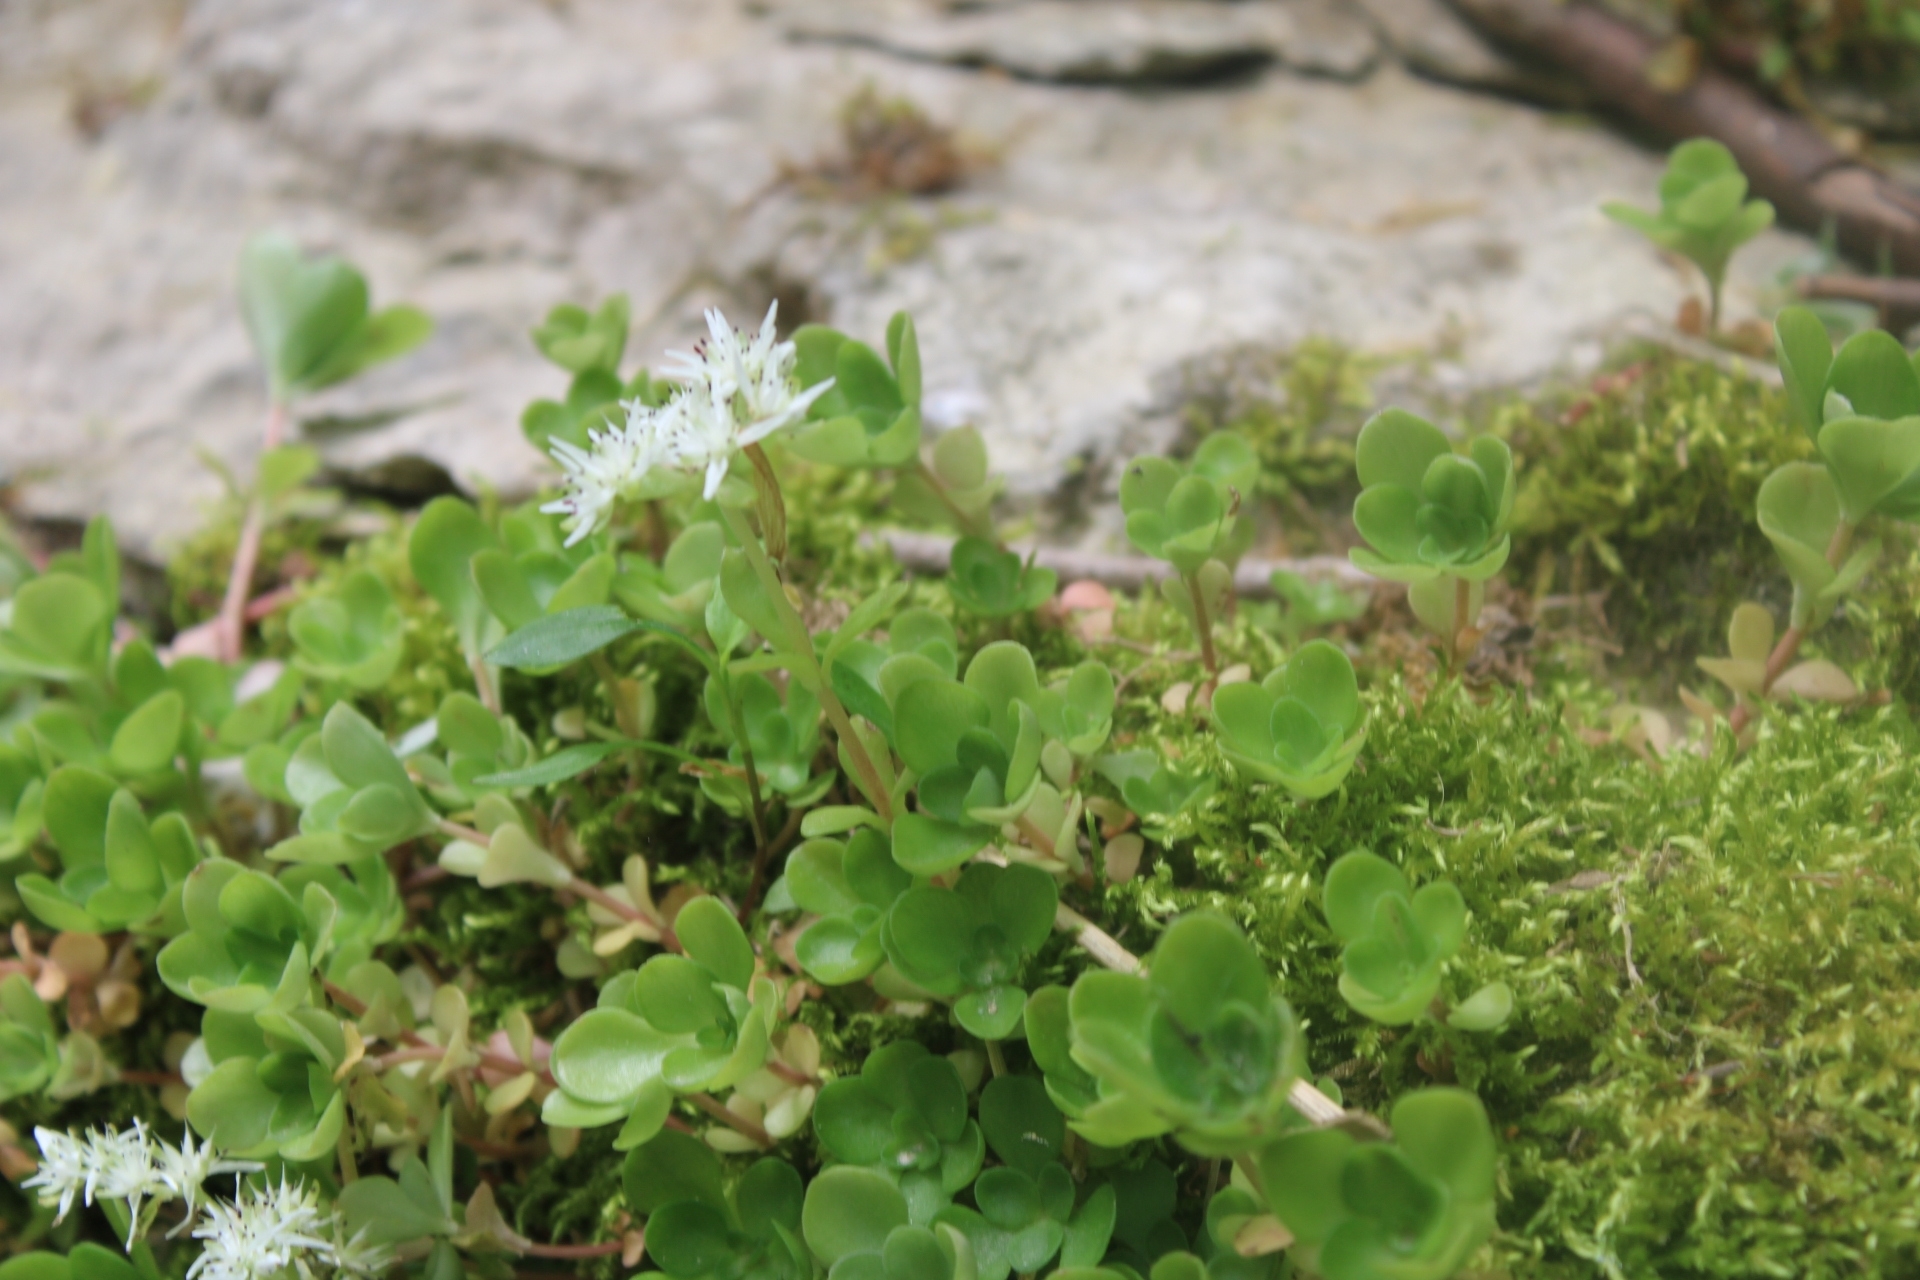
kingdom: Plantae
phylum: Tracheophyta
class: Magnoliopsida
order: Saxifragales
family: Crassulaceae
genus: Sedum
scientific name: Sedum ternatum
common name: Wild stonecrop
